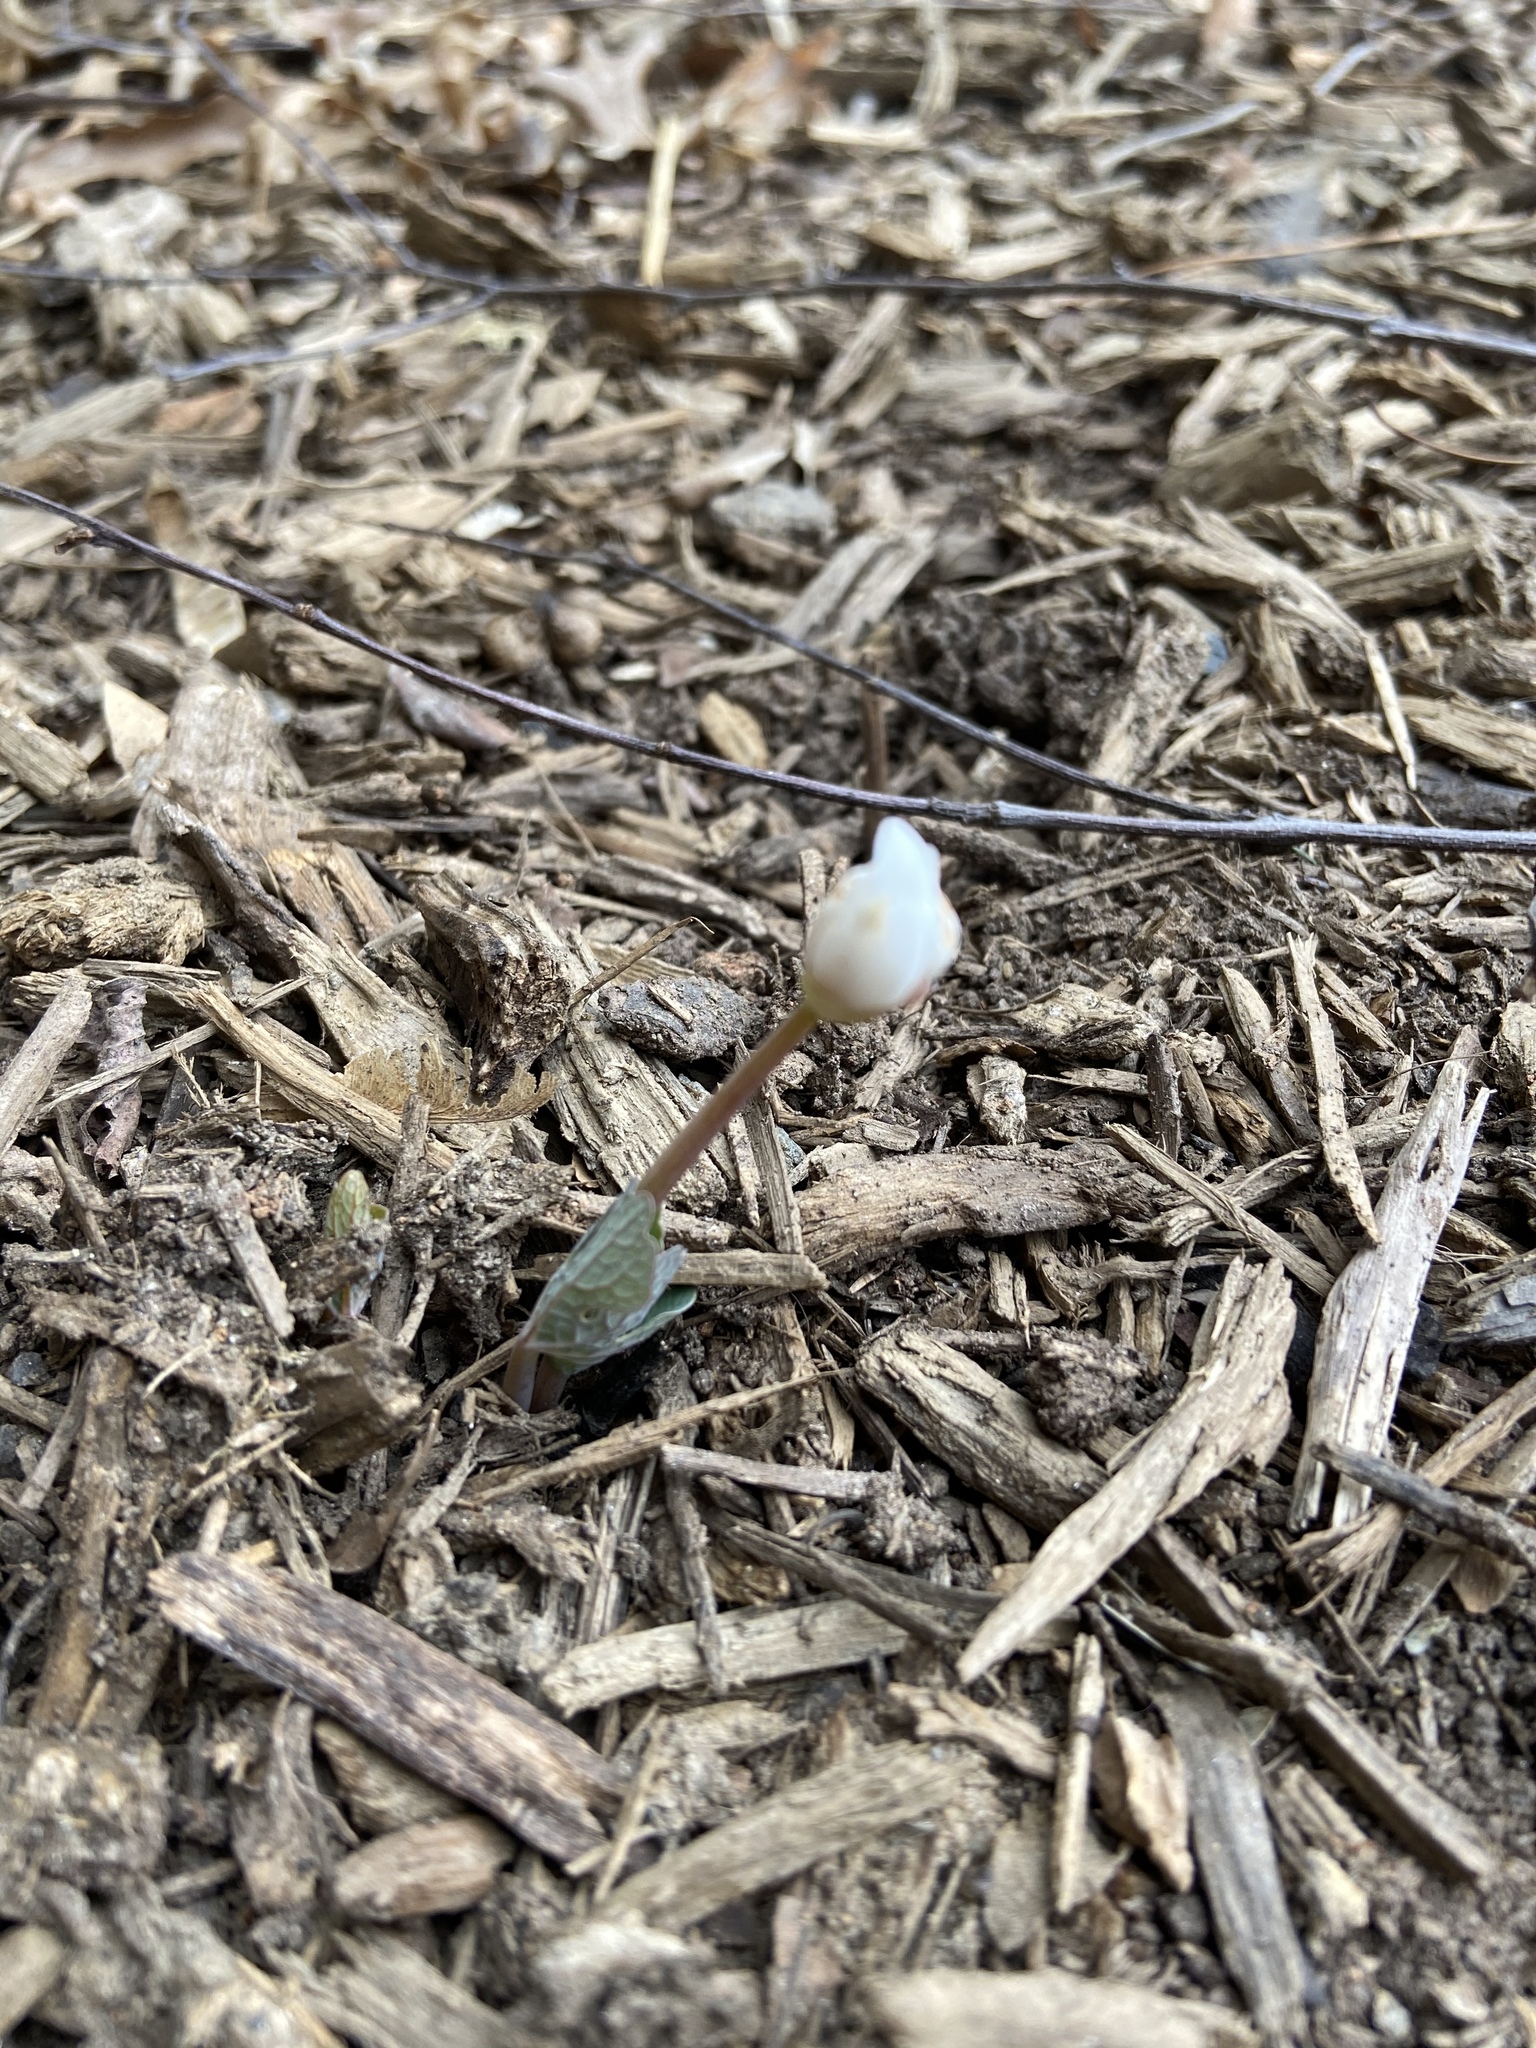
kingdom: Plantae
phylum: Tracheophyta
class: Magnoliopsida
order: Ranunculales
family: Papaveraceae
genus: Sanguinaria
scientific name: Sanguinaria canadensis
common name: Bloodroot
